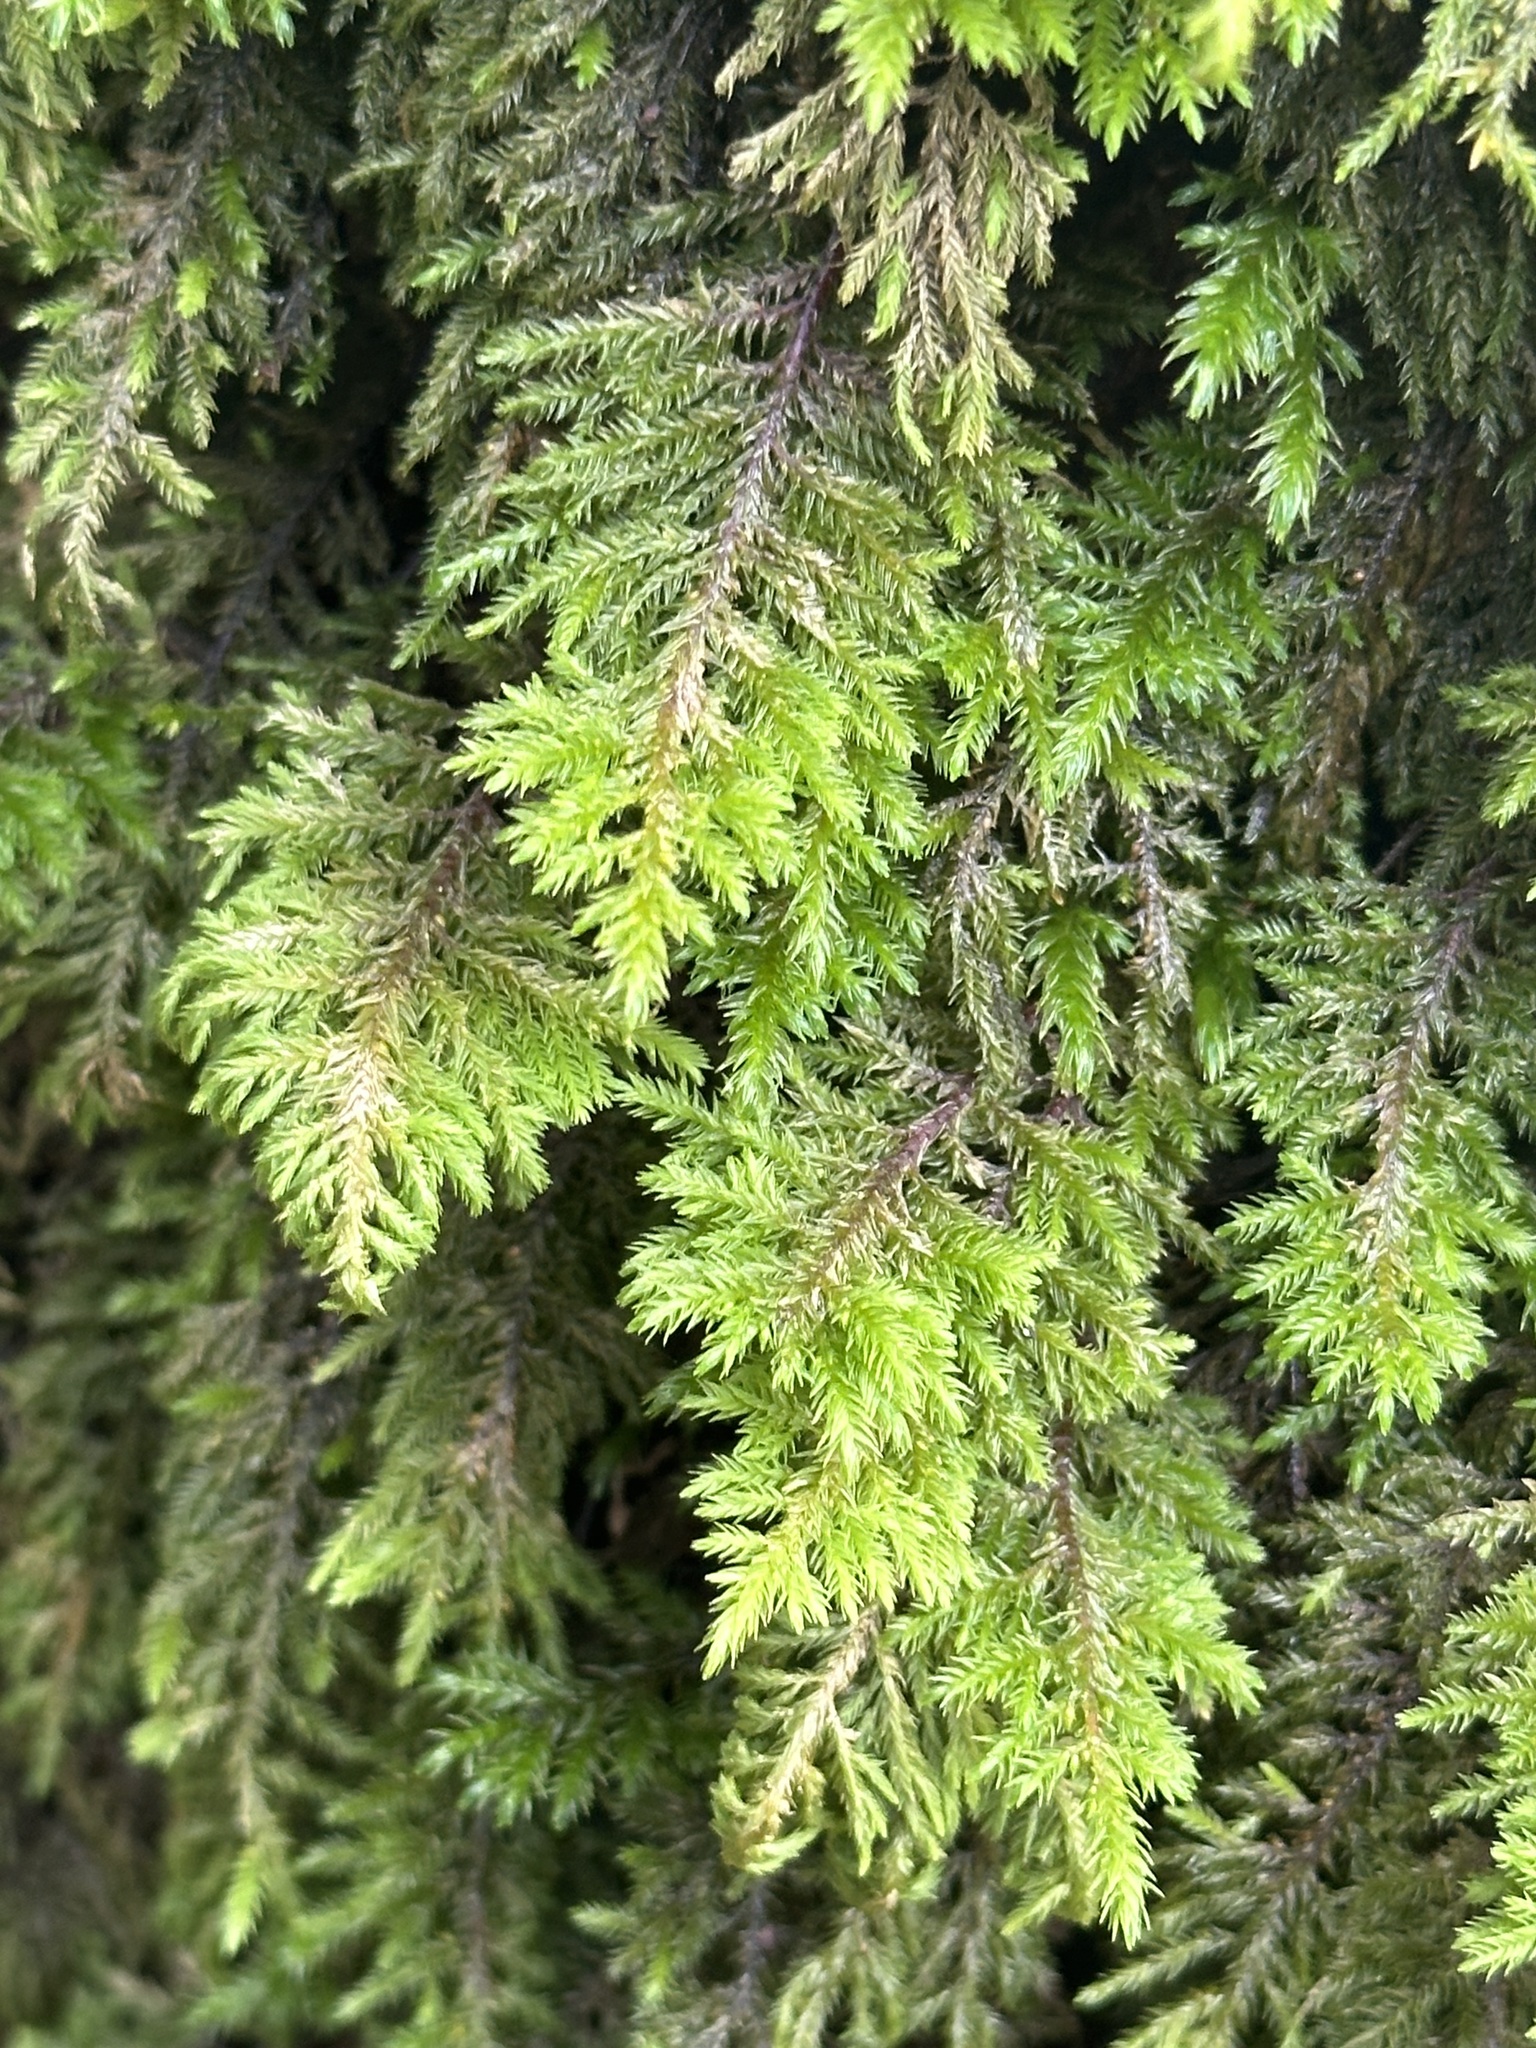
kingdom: Plantae
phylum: Bryophyta
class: Bryopsida
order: Hypnales
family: Cryphaeaceae
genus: Dendroalsia
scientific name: Dendroalsia abietina
